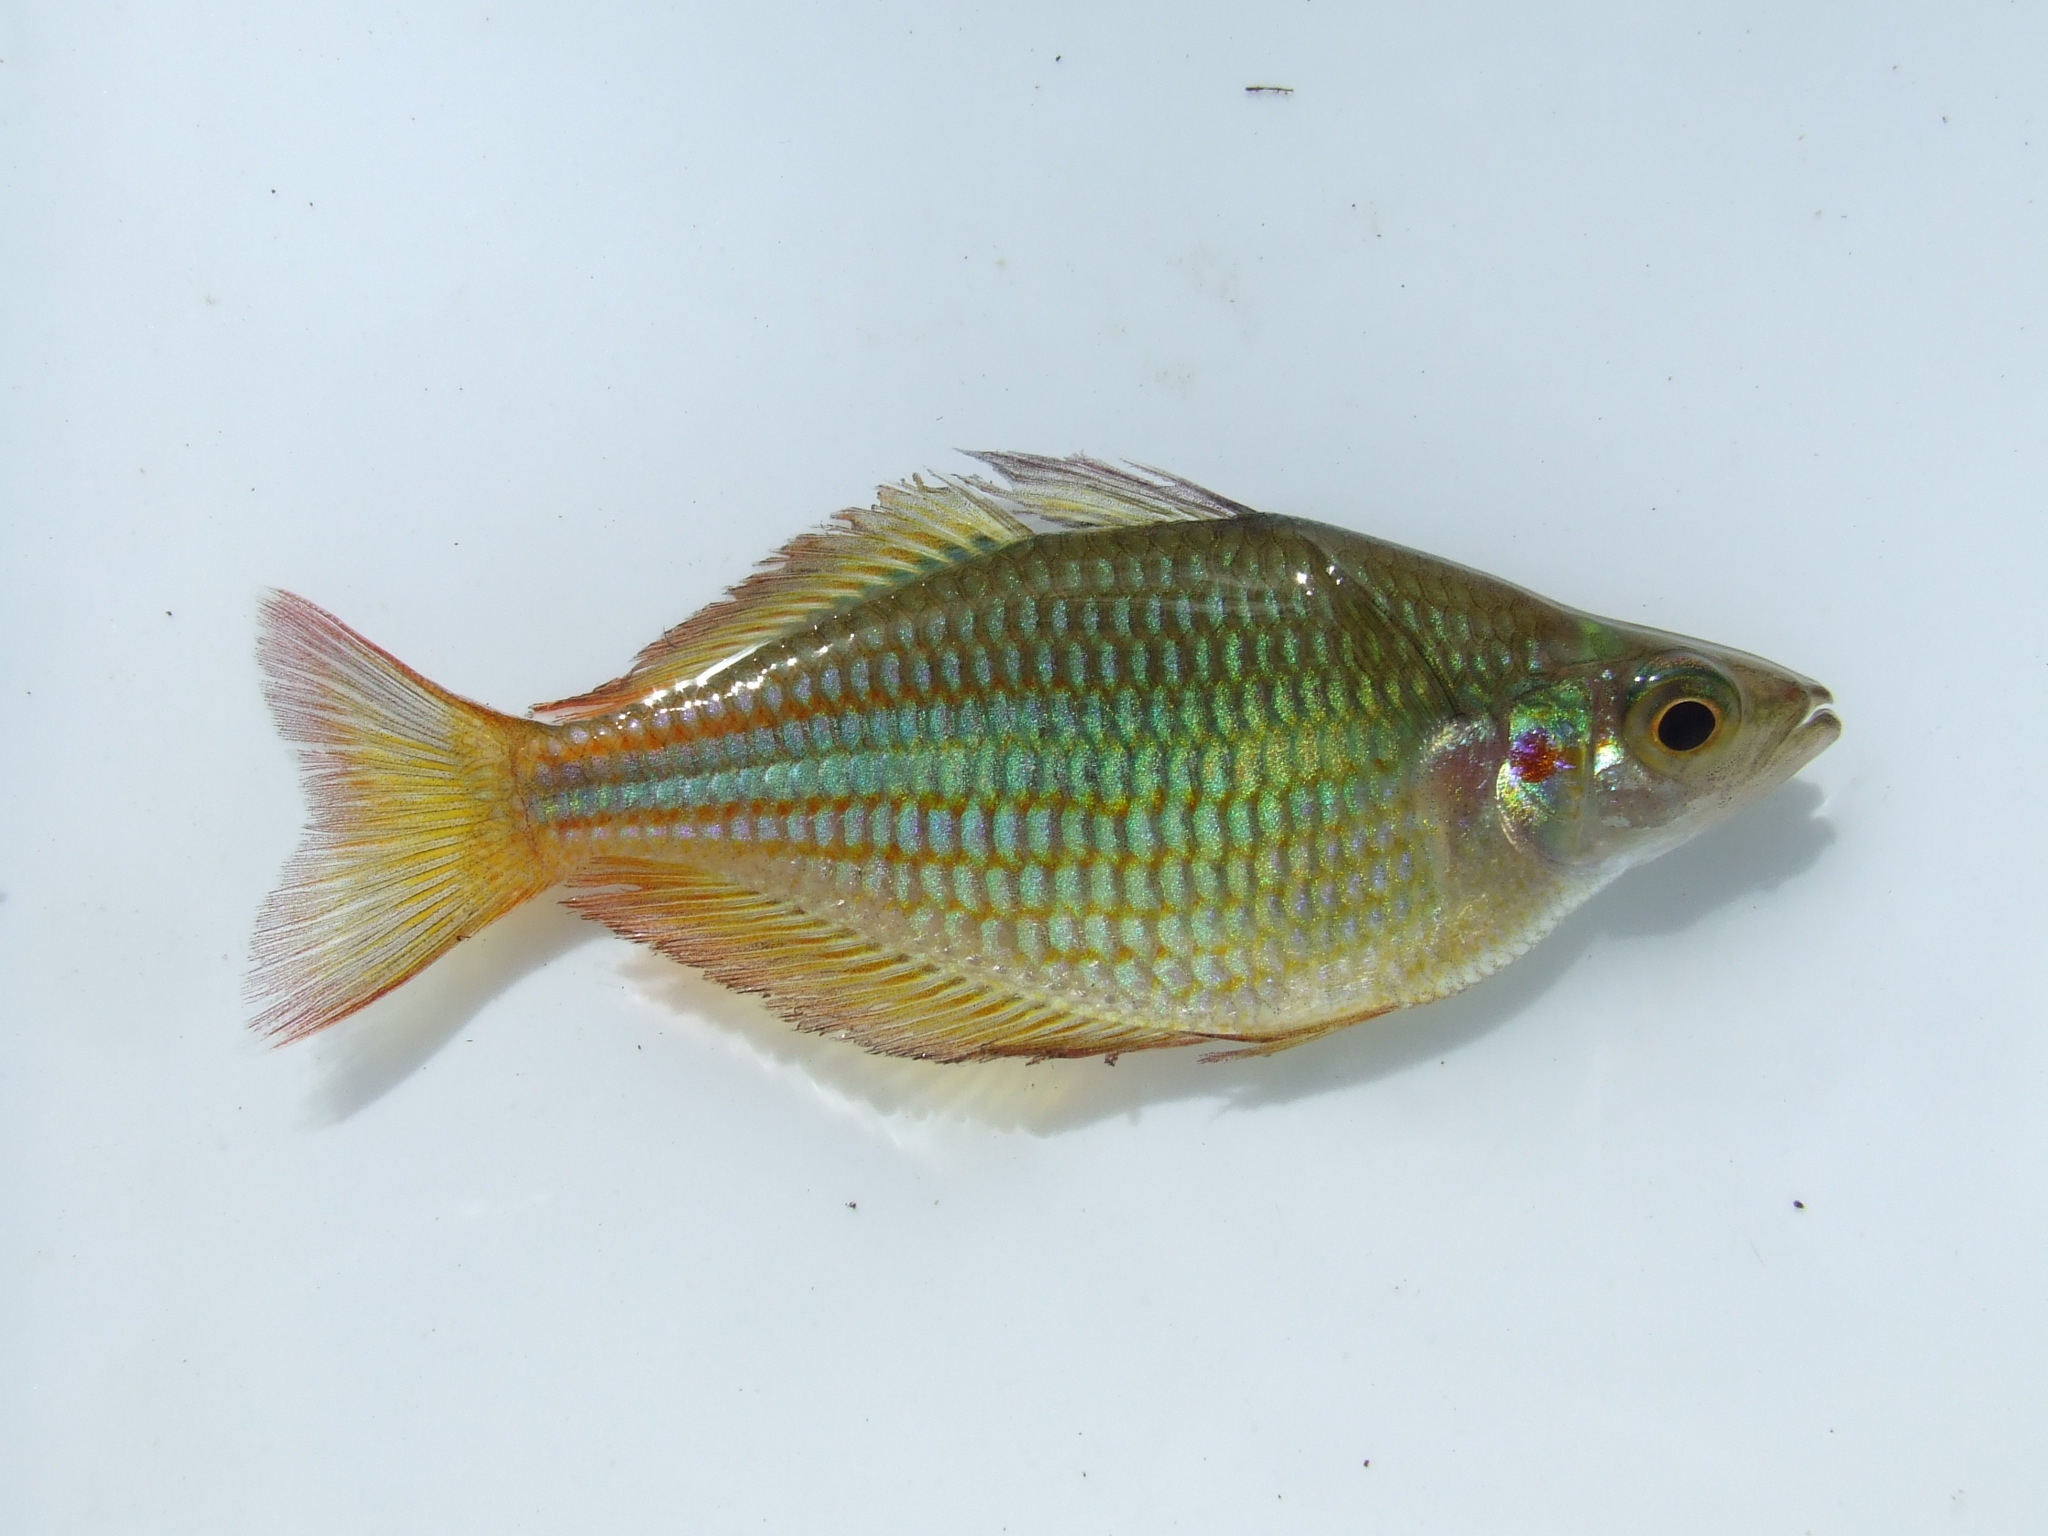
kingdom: Animalia
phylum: Chordata
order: Atheriniformes
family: Melanotaeniidae
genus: Melanotaenia
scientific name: Melanotaenia trifasciata
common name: Banded rainbowfish
